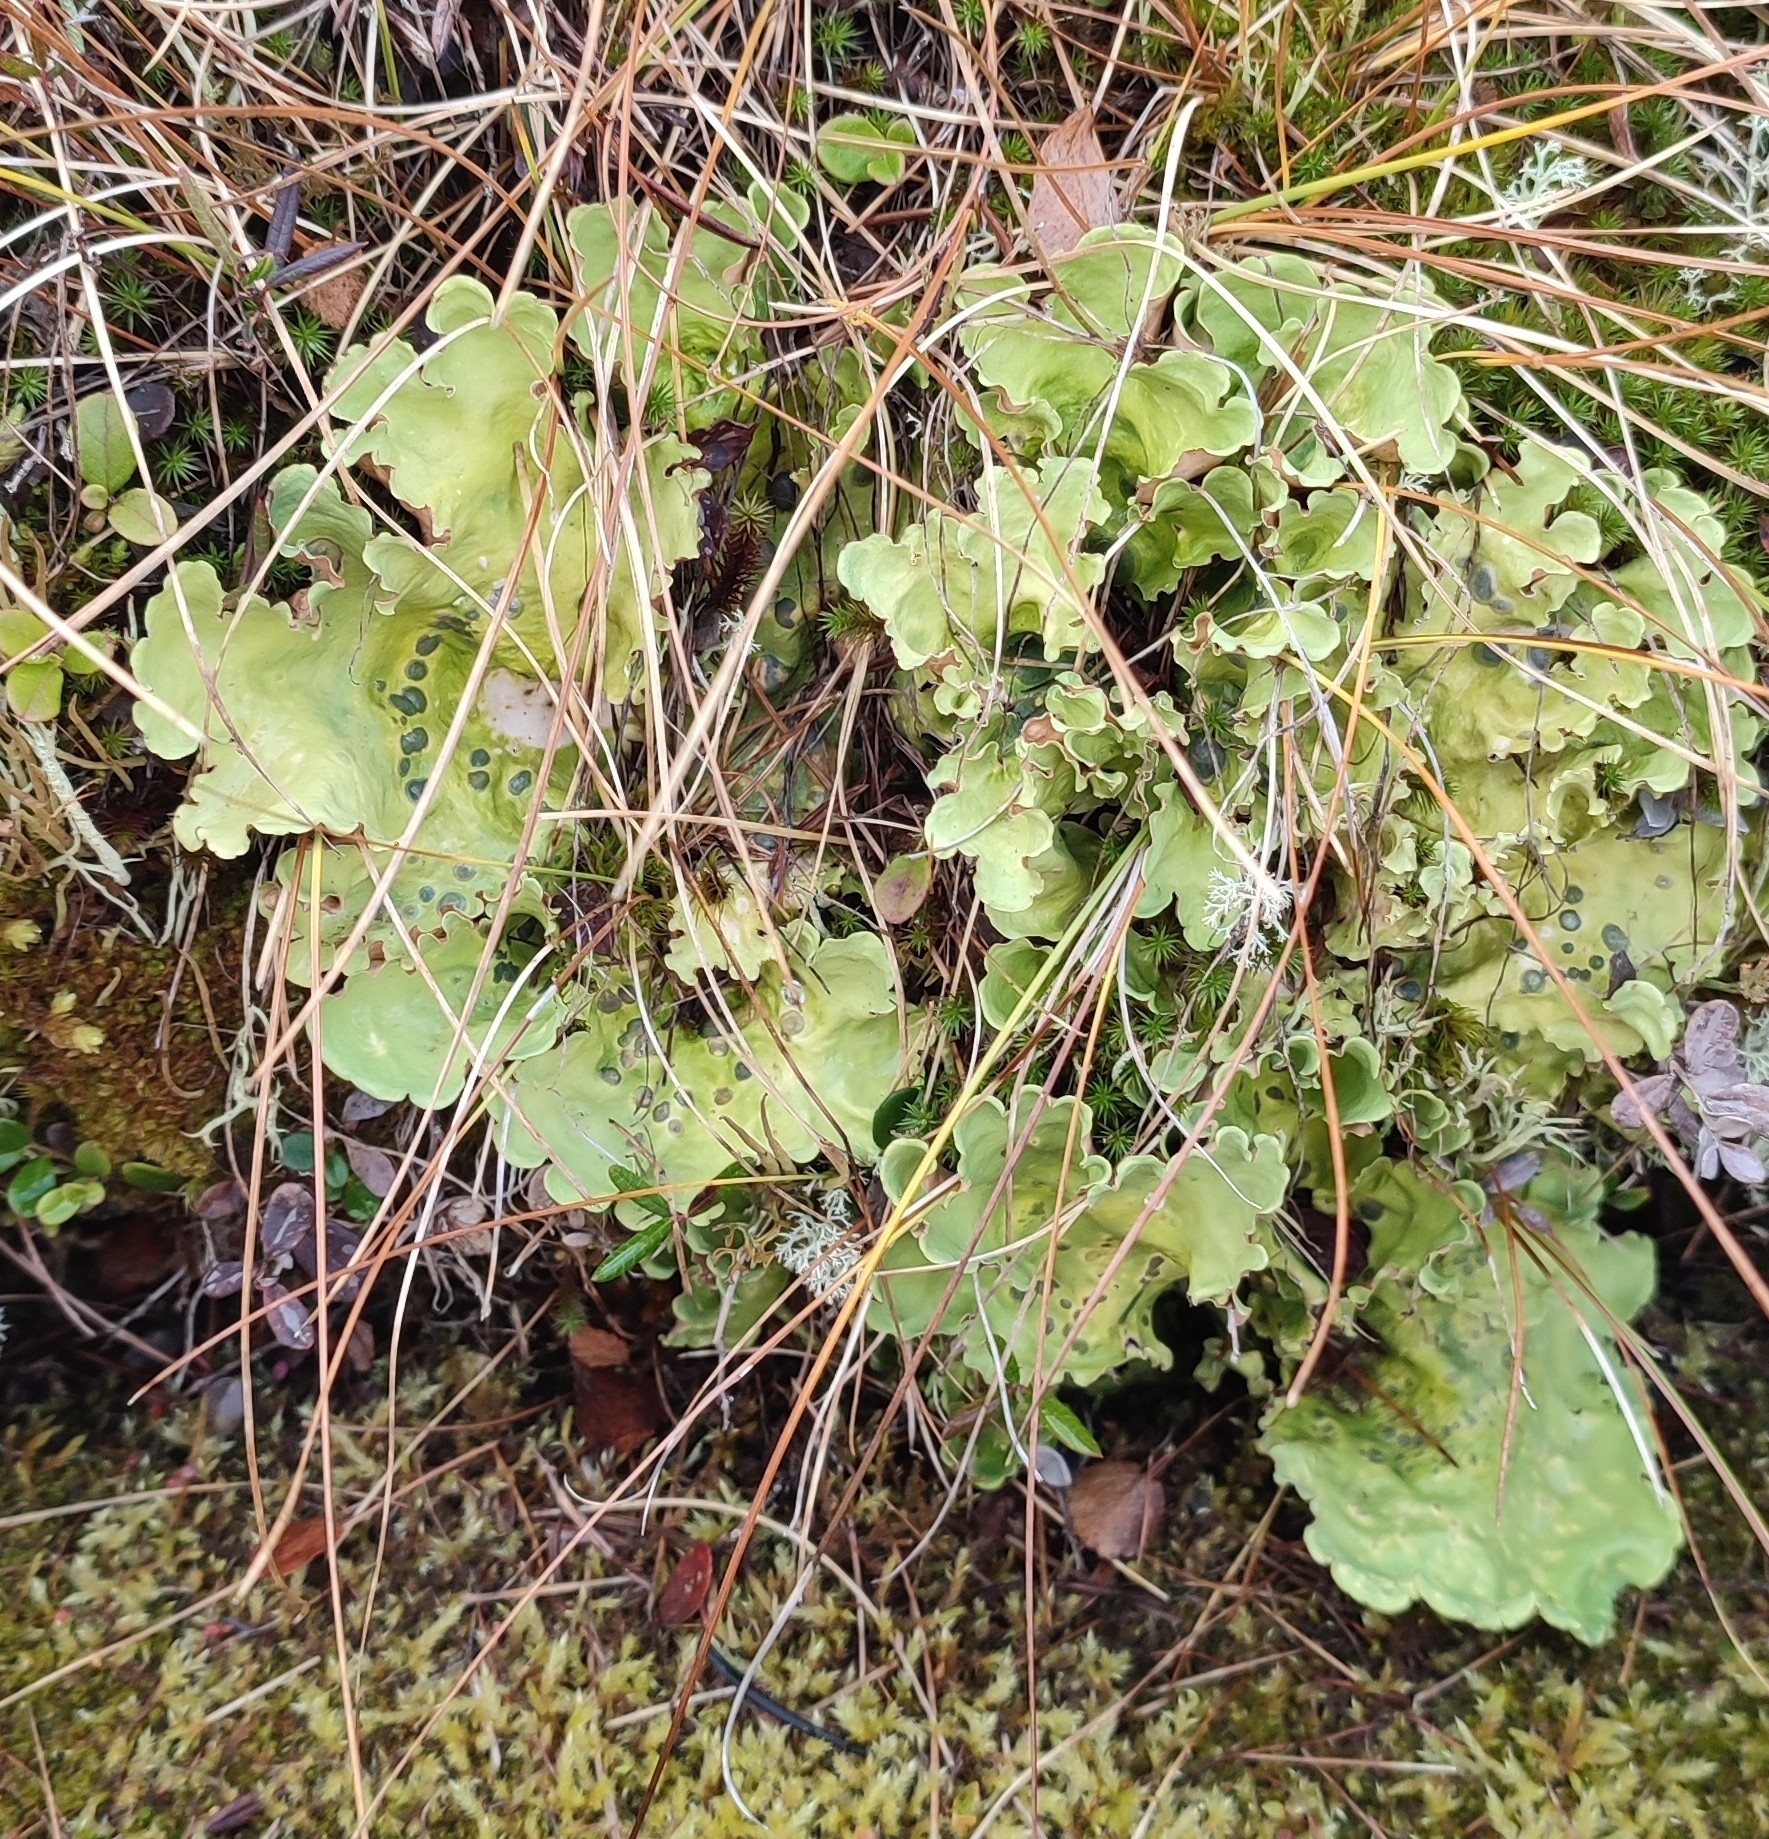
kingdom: Fungi
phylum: Ascomycota
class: Lecanoromycetes
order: Peltigerales
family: Nephromataceae
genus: Nephroma
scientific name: Nephroma arcticum
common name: Arctic kidney-lichen
